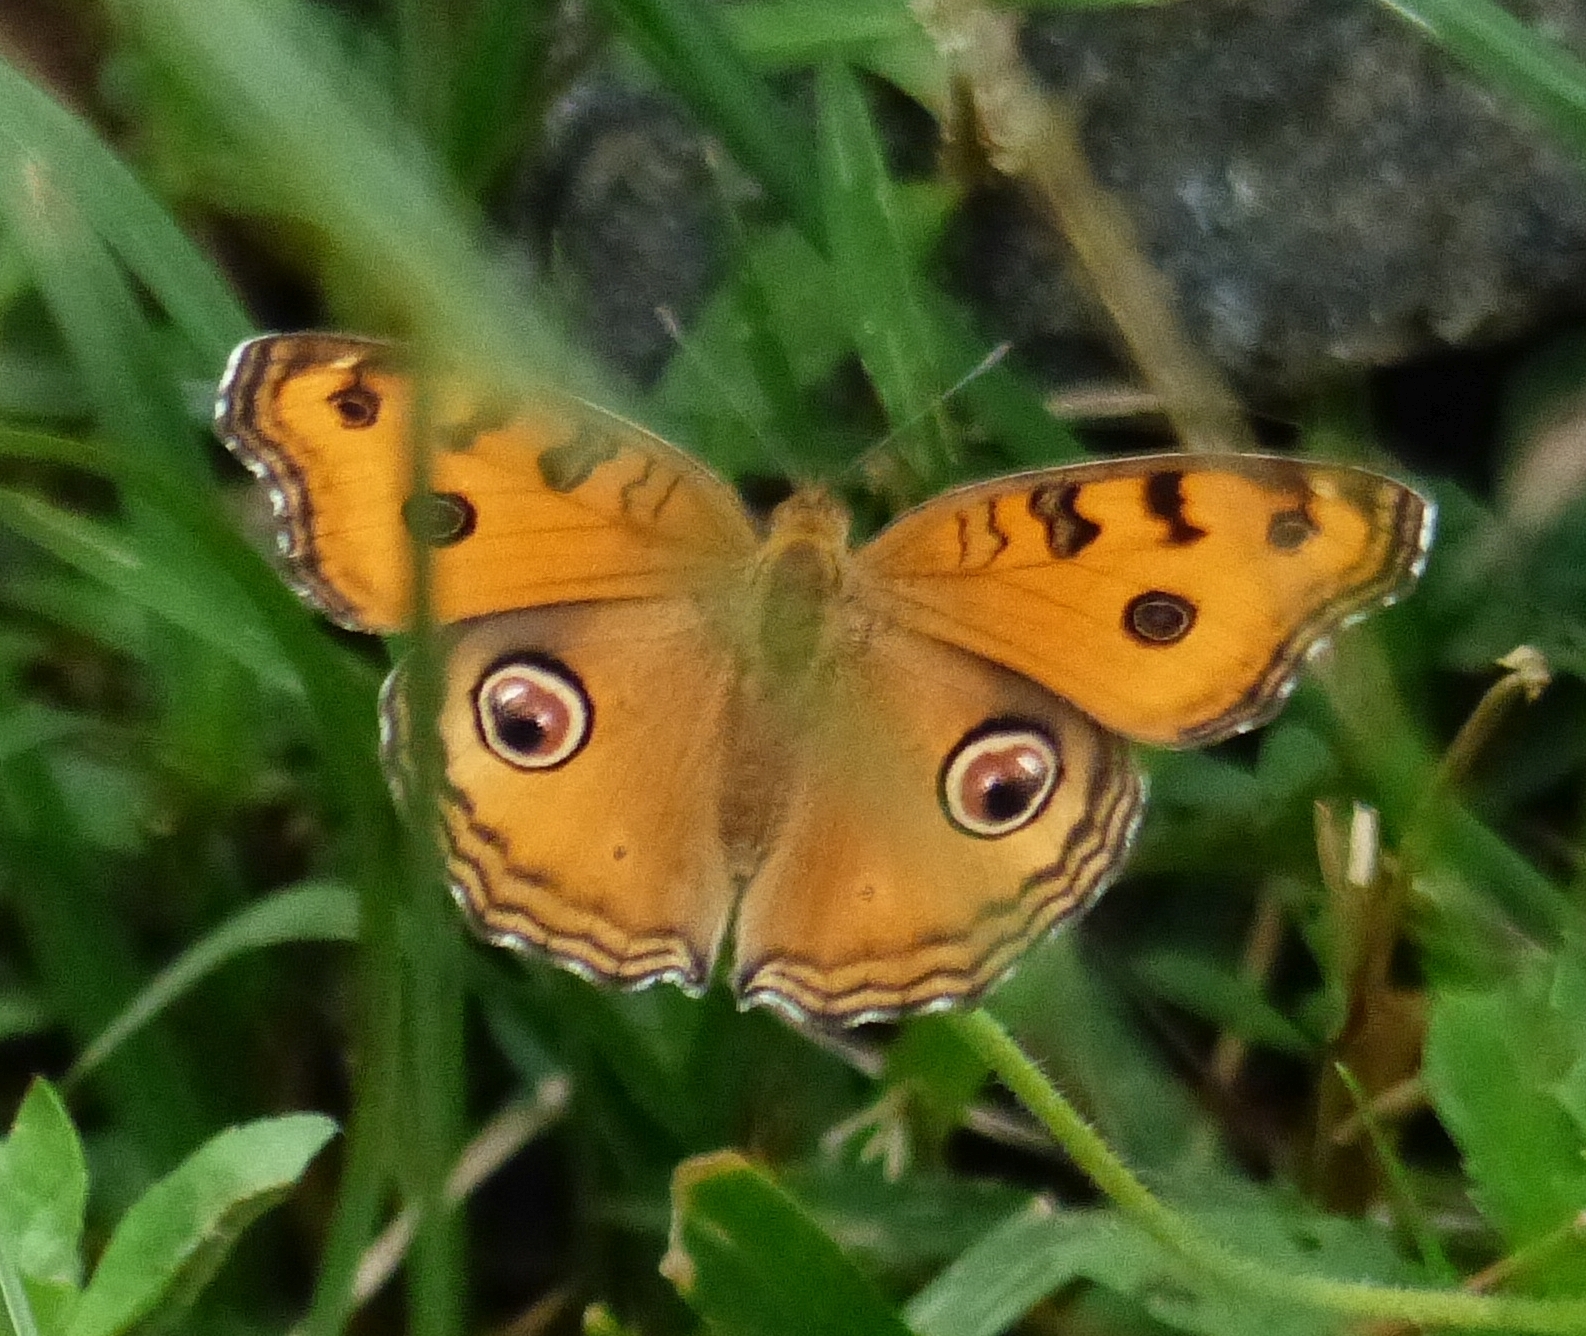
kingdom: Animalia
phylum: Arthropoda
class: Insecta
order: Lepidoptera
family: Nymphalidae
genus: Junonia
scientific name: Junonia almana
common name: Peacock pansy
